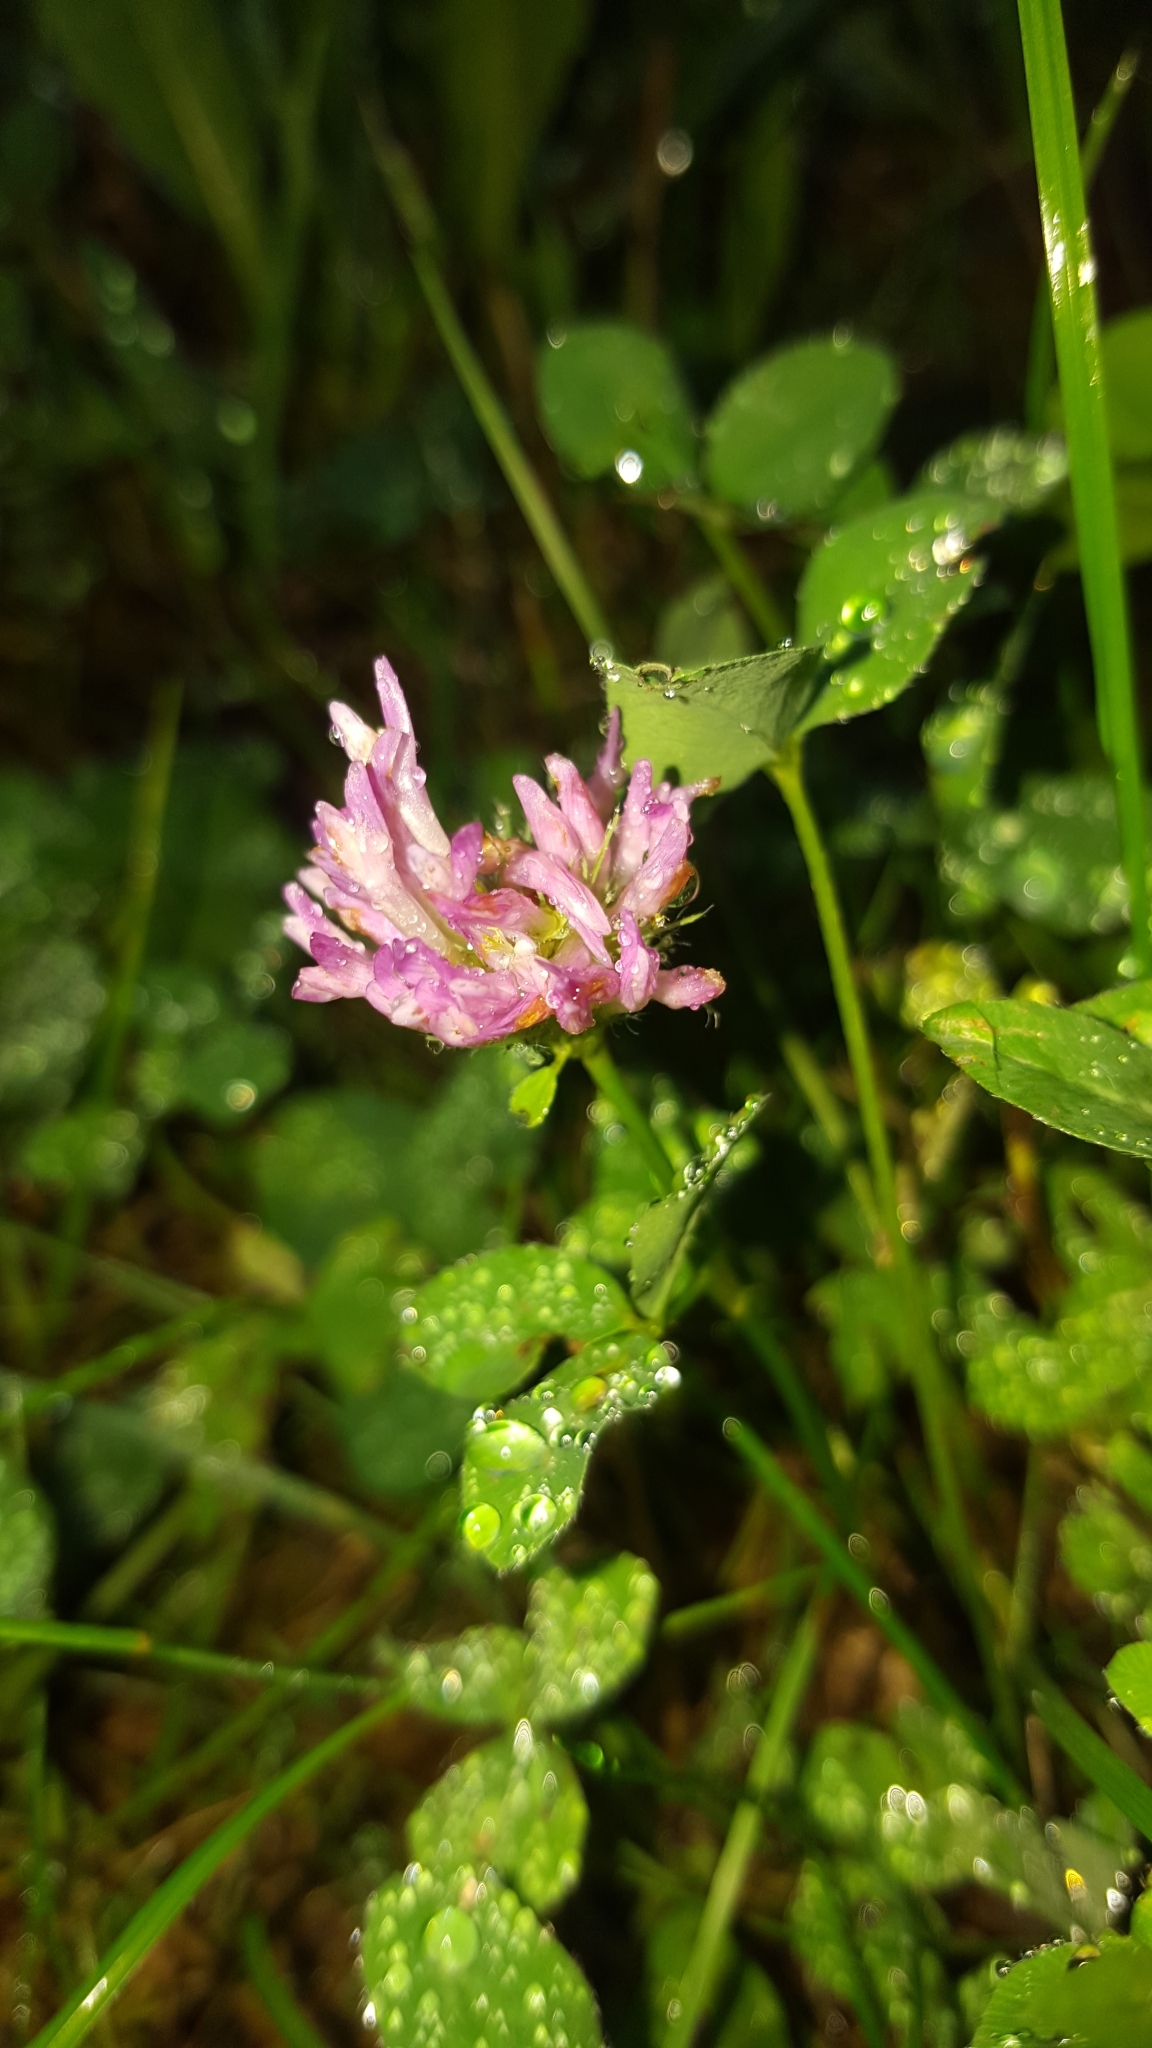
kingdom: Plantae
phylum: Tracheophyta
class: Magnoliopsida
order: Fabales
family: Fabaceae
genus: Trifolium
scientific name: Trifolium pratense
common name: Red clover
